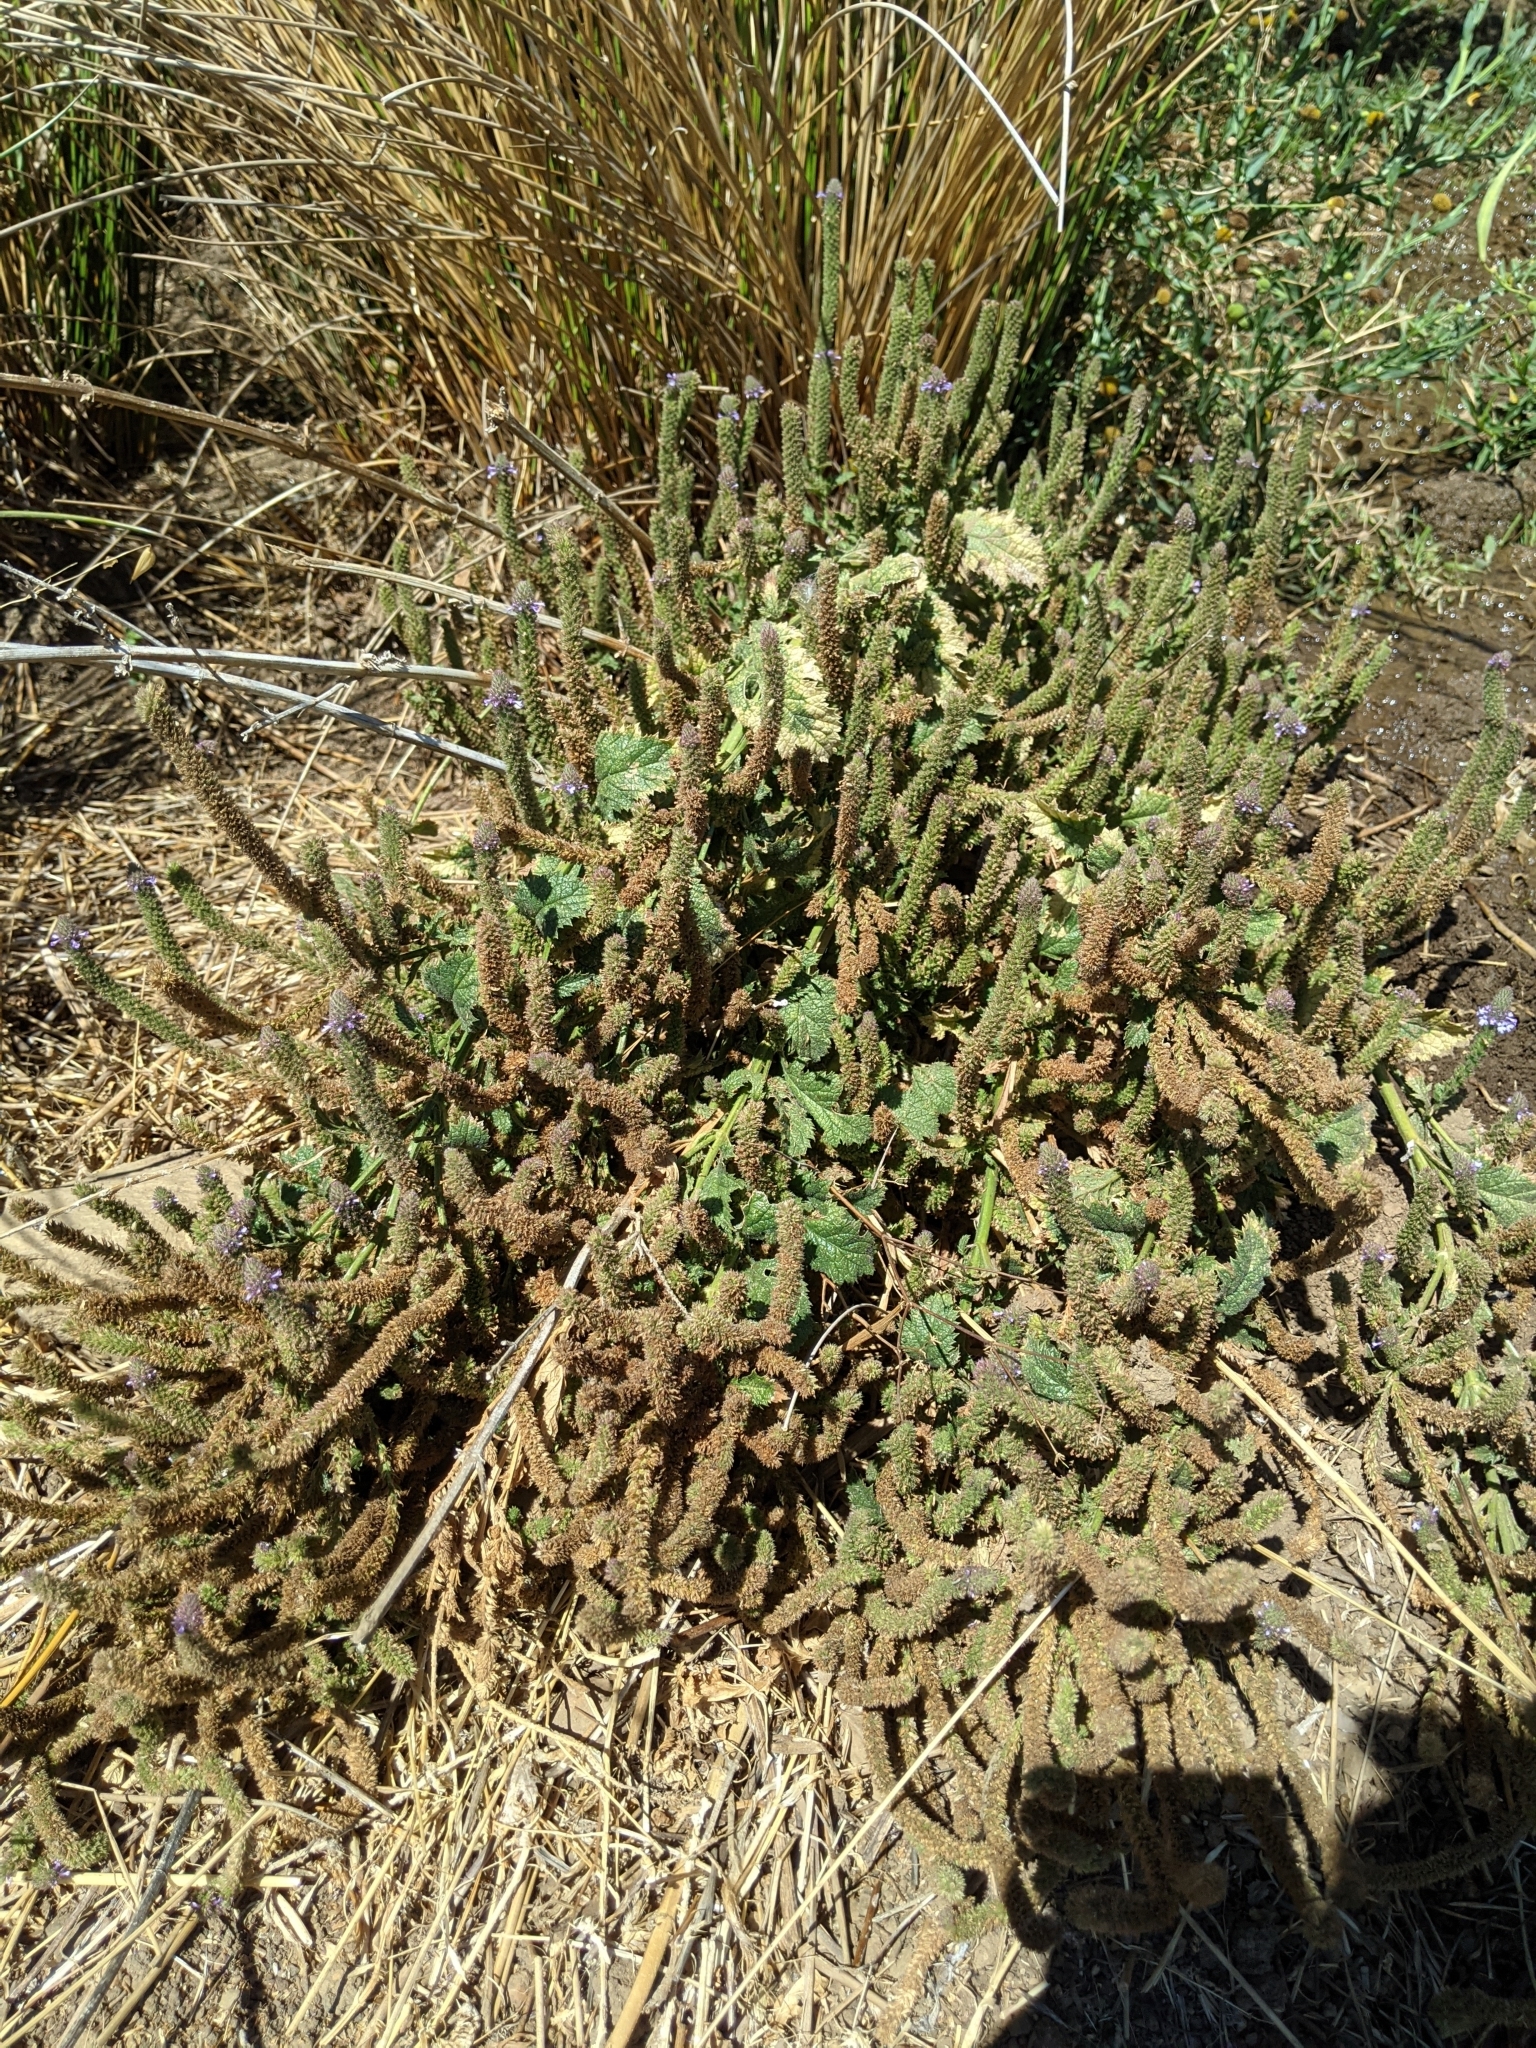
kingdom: Plantae
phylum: Tracheophyta
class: Magnoliopsida
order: Lamiales
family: Verbenaceae
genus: Verbena
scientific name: Verbena lasiostachys
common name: Vervain
